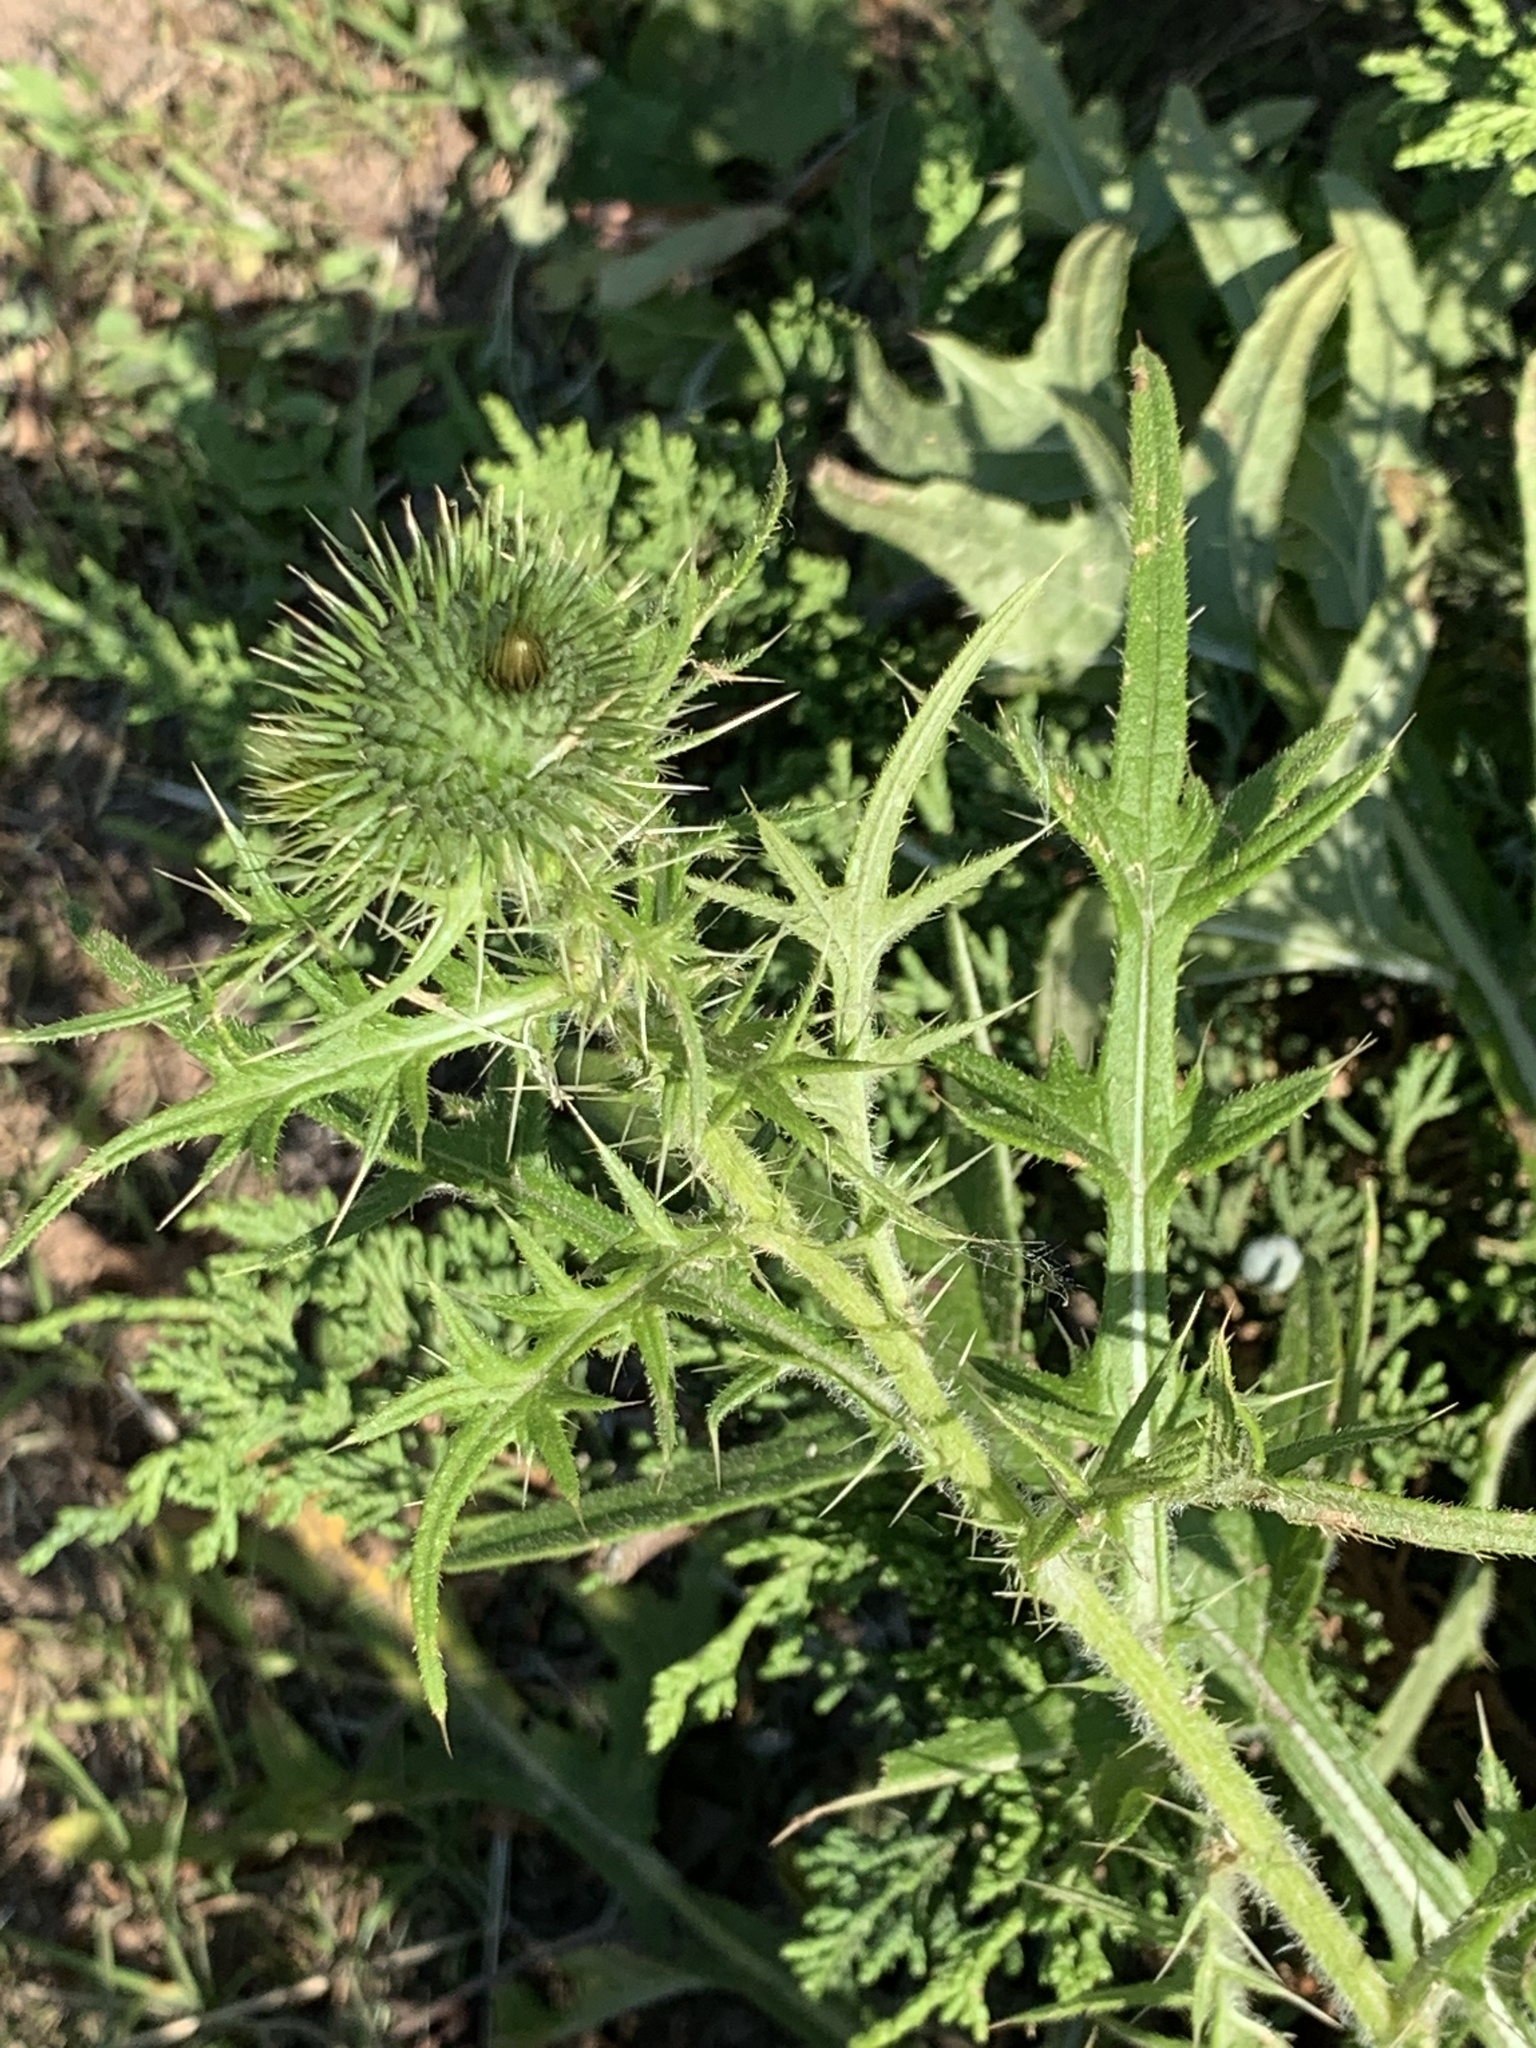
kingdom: Plantae
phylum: Tracheophyta
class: Magnoliopsida
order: Asterales
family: Asteraceae
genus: Cirsium
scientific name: Cirsium vulgare
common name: Bull thistle
